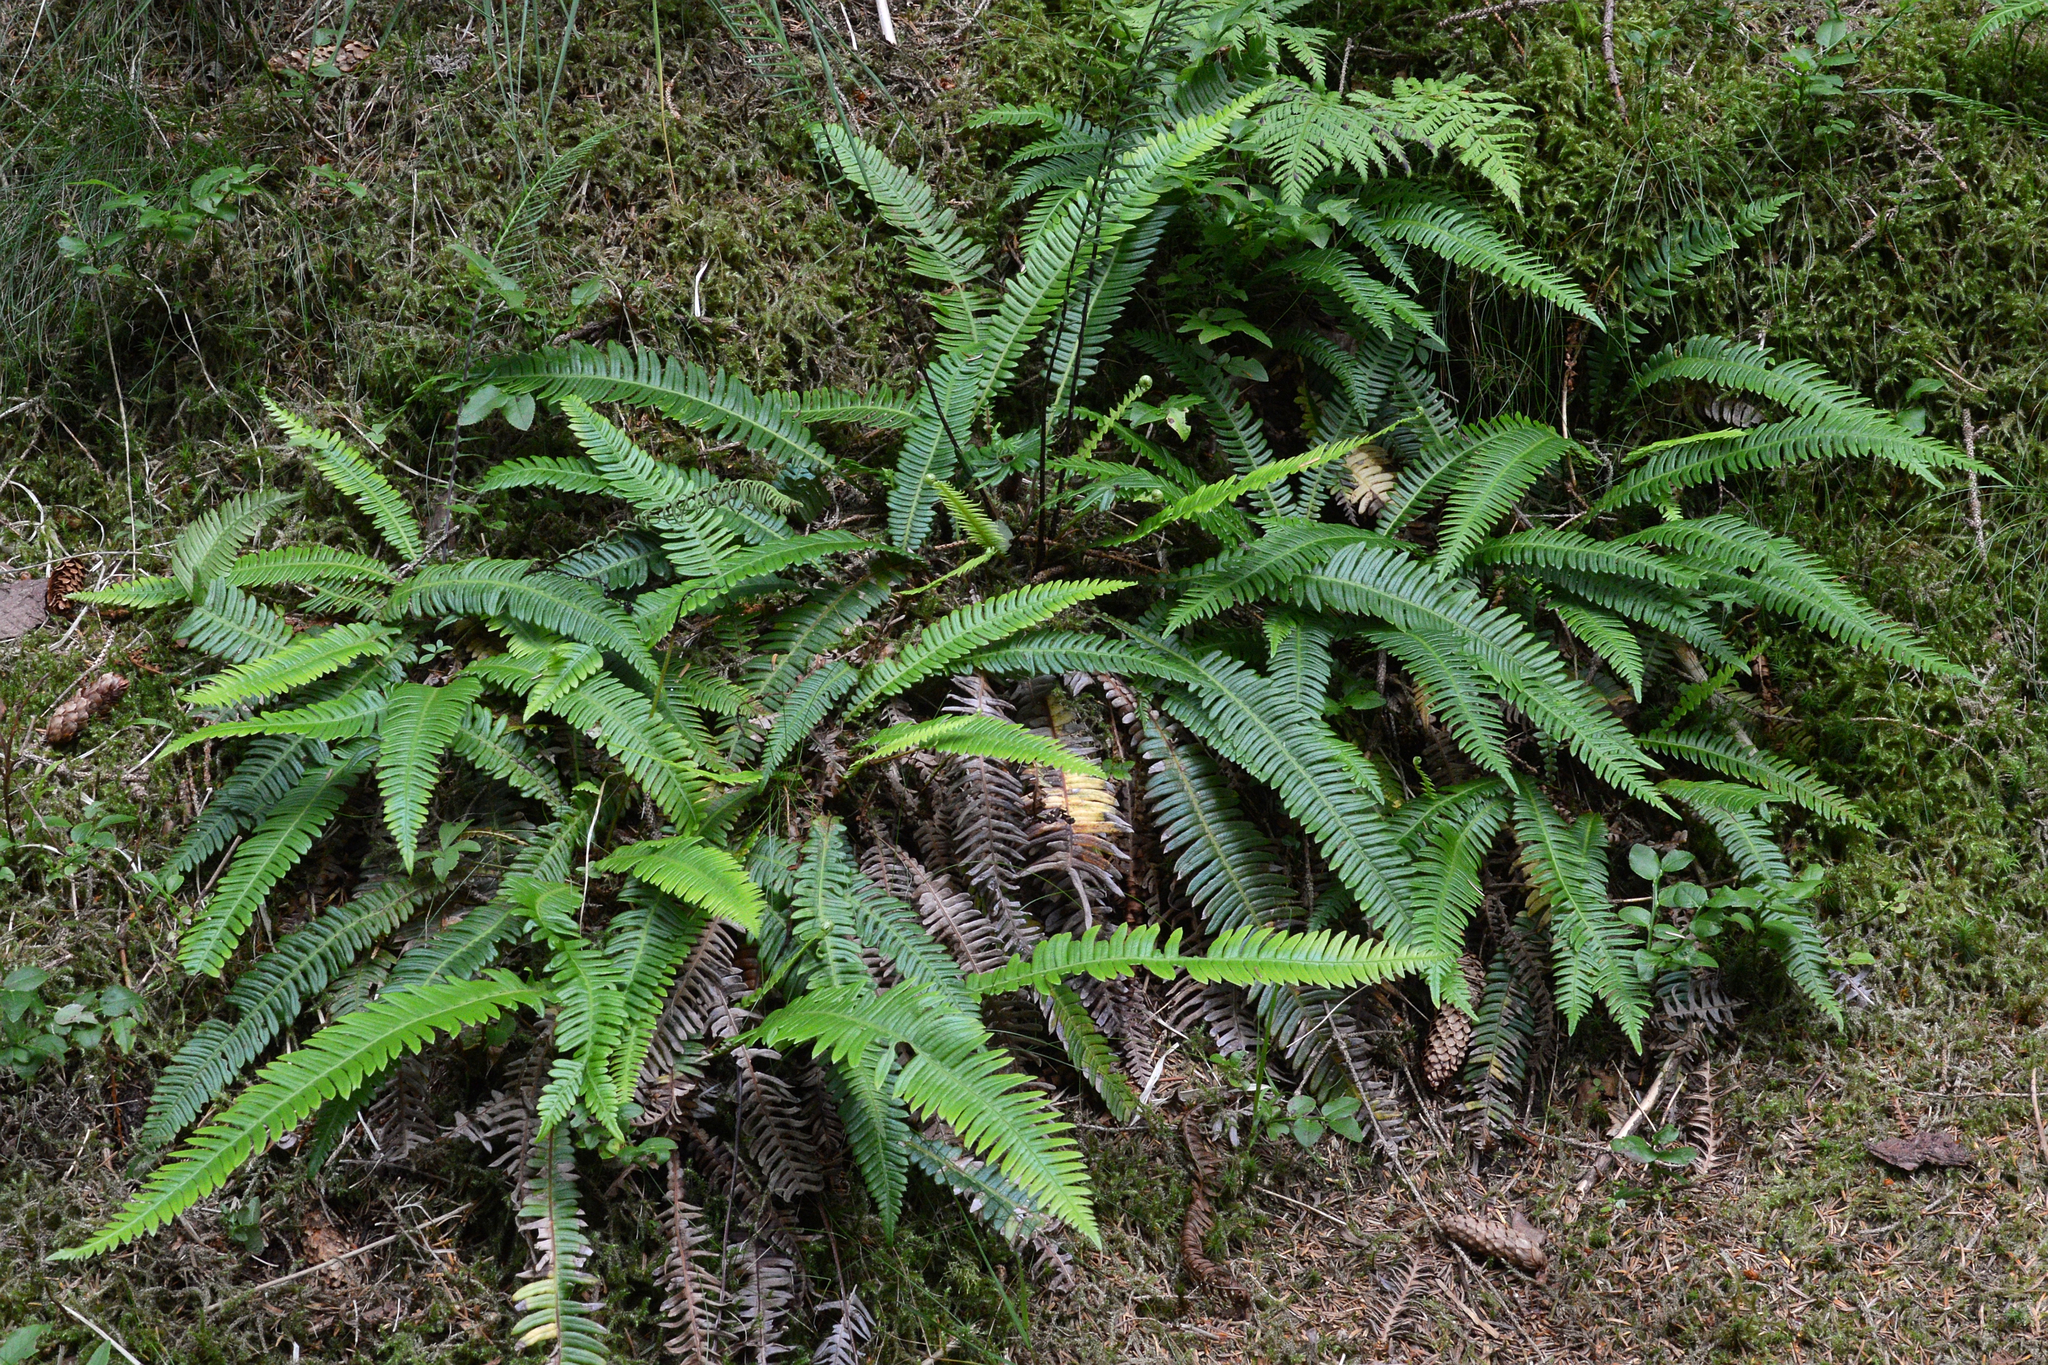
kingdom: Plantae
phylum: Tracheophyta
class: Polypodiopsida
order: Polypodiales
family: Blechnaceae
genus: Struthiopteris
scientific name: Struthiopteris spicant
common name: Deer fern
